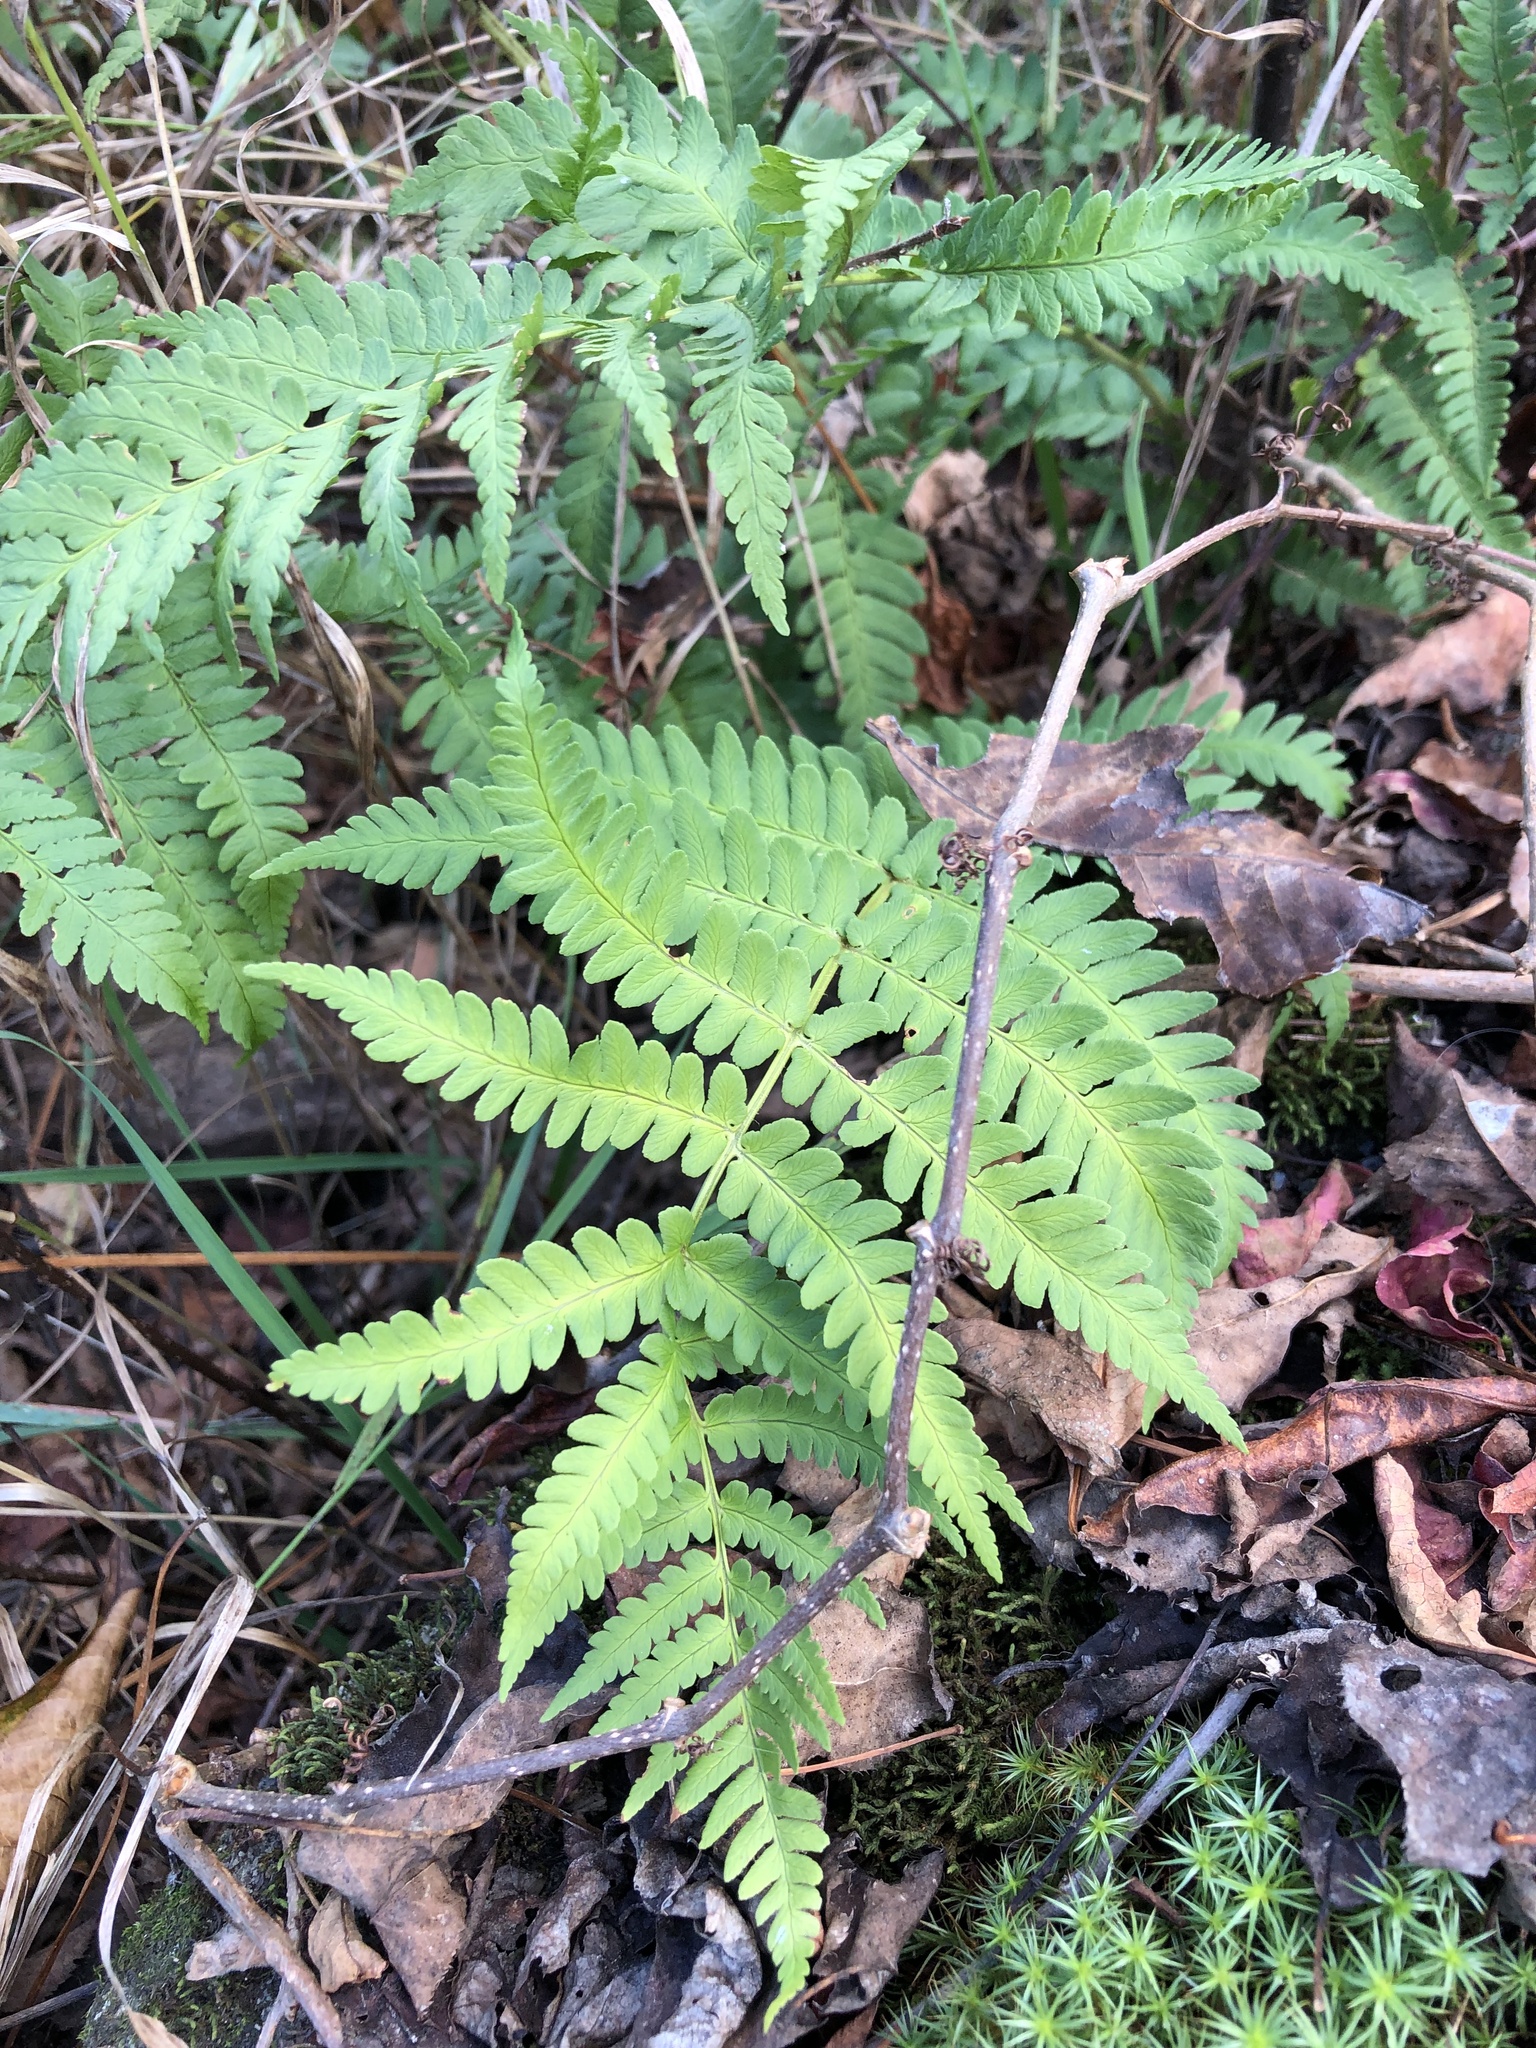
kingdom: Plantae
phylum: Tracheophyta
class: Polypodiopsida
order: Polypodiales
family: Dryopteridaceae
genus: Dryopteris
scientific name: Dryopteris marginalis
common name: Marginal wood fern
